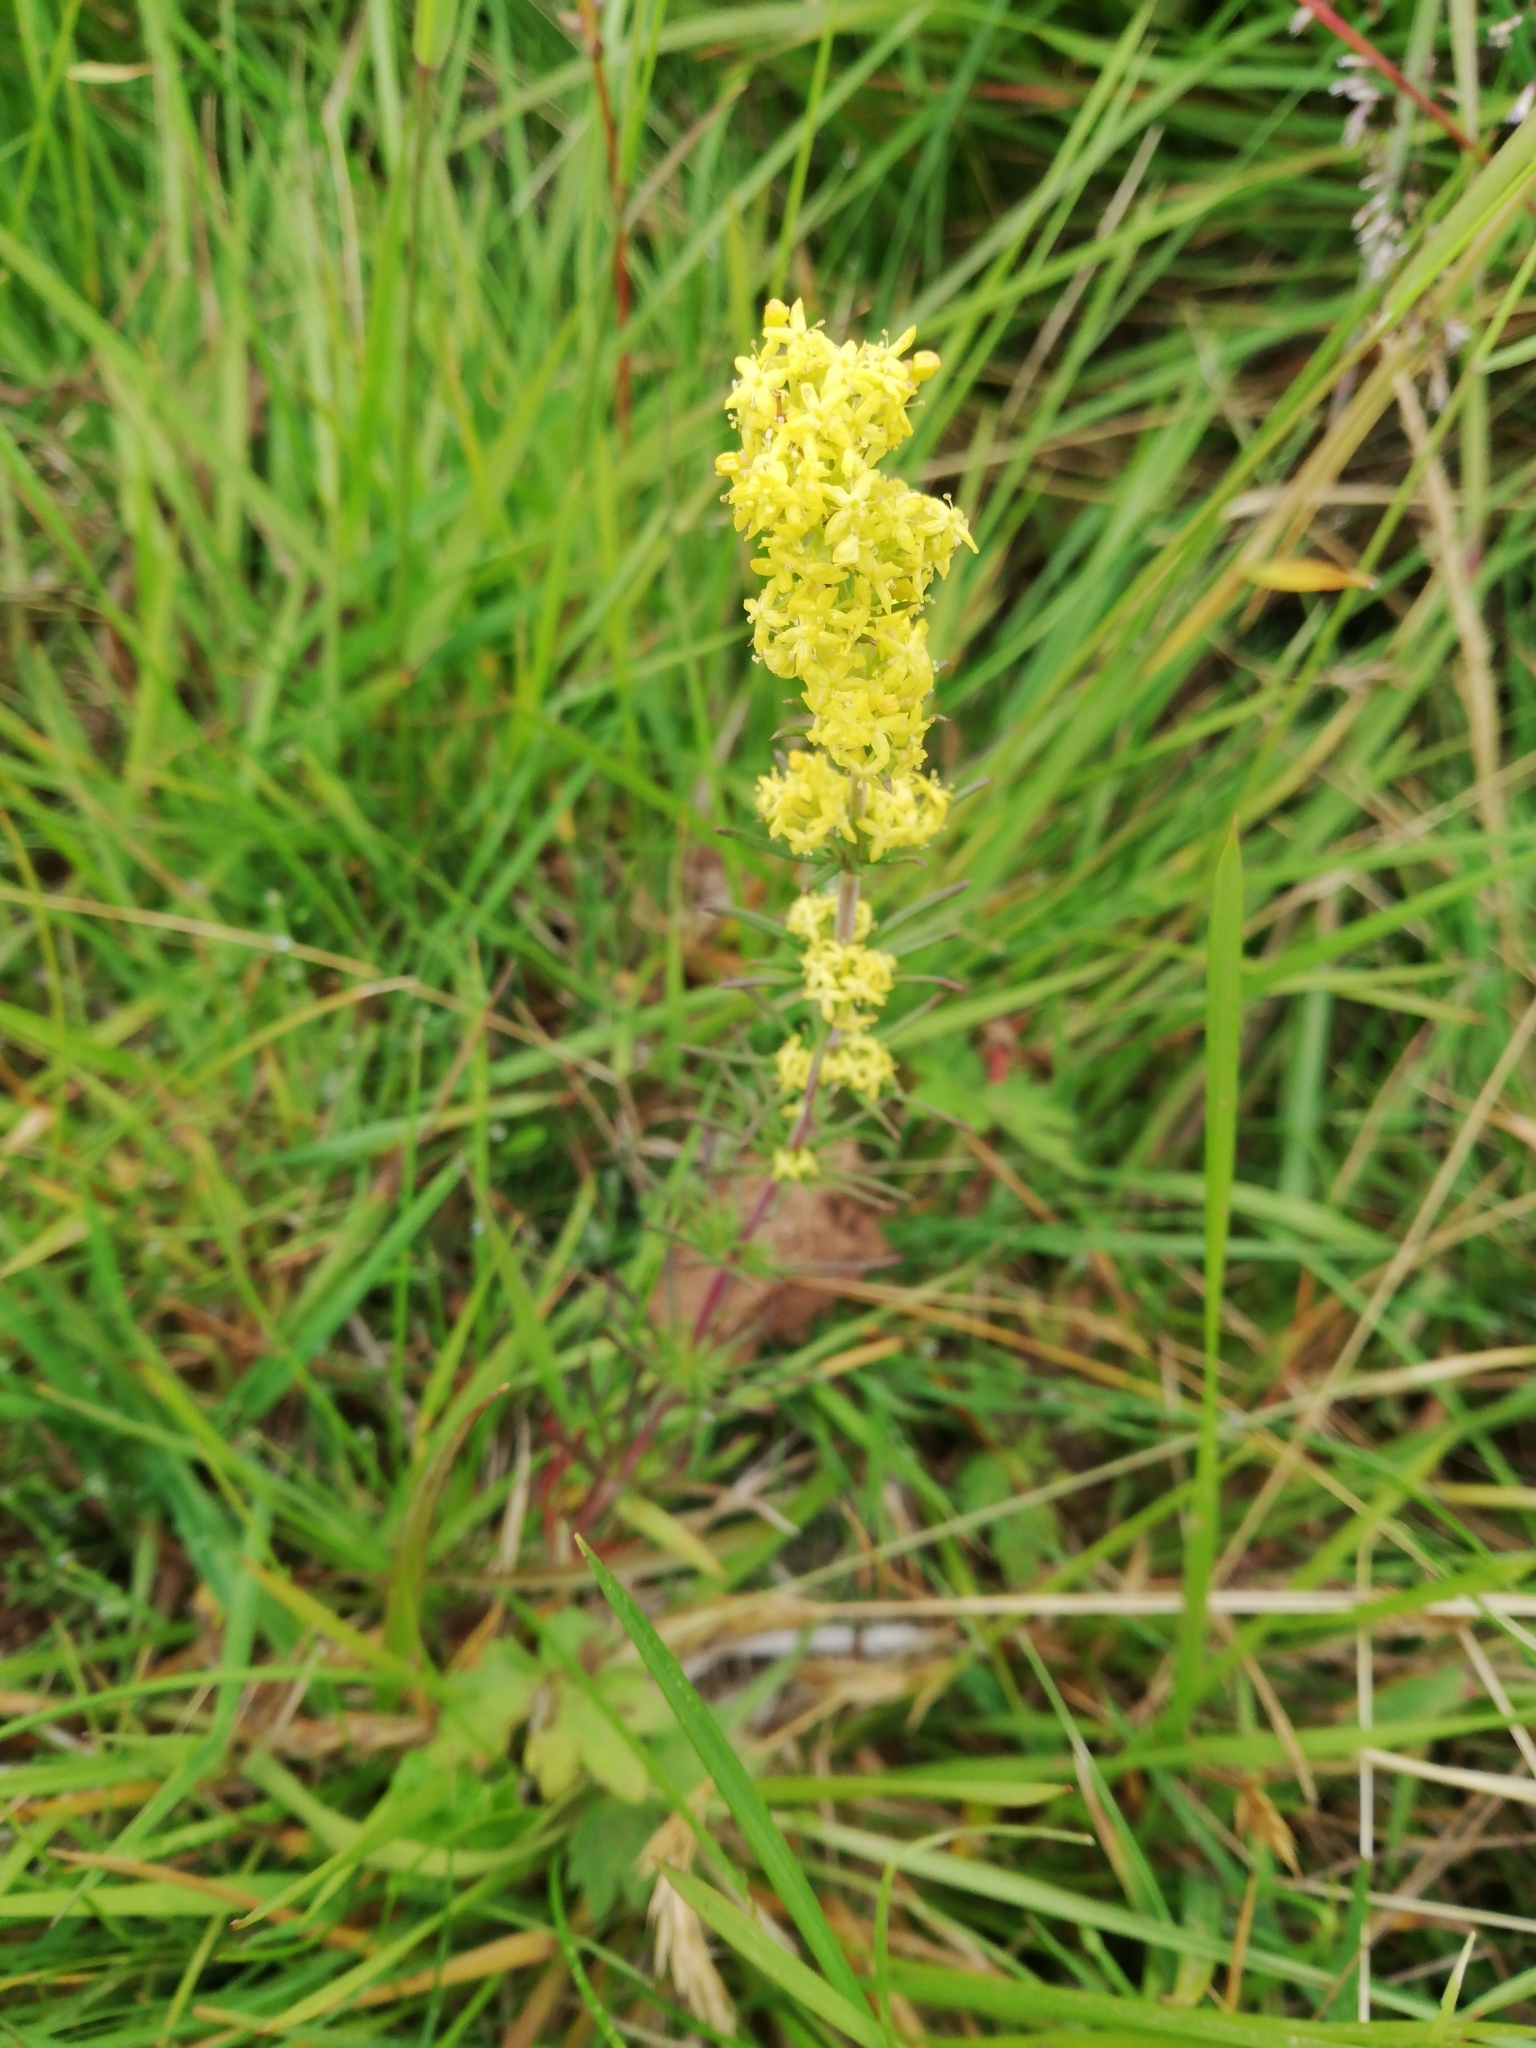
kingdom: Plantae
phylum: Tracheophyta
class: Magnoliopsida
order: Gentianales
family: Rubiaceae
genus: Galium
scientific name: Galium verum
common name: Lady's bedstraw
